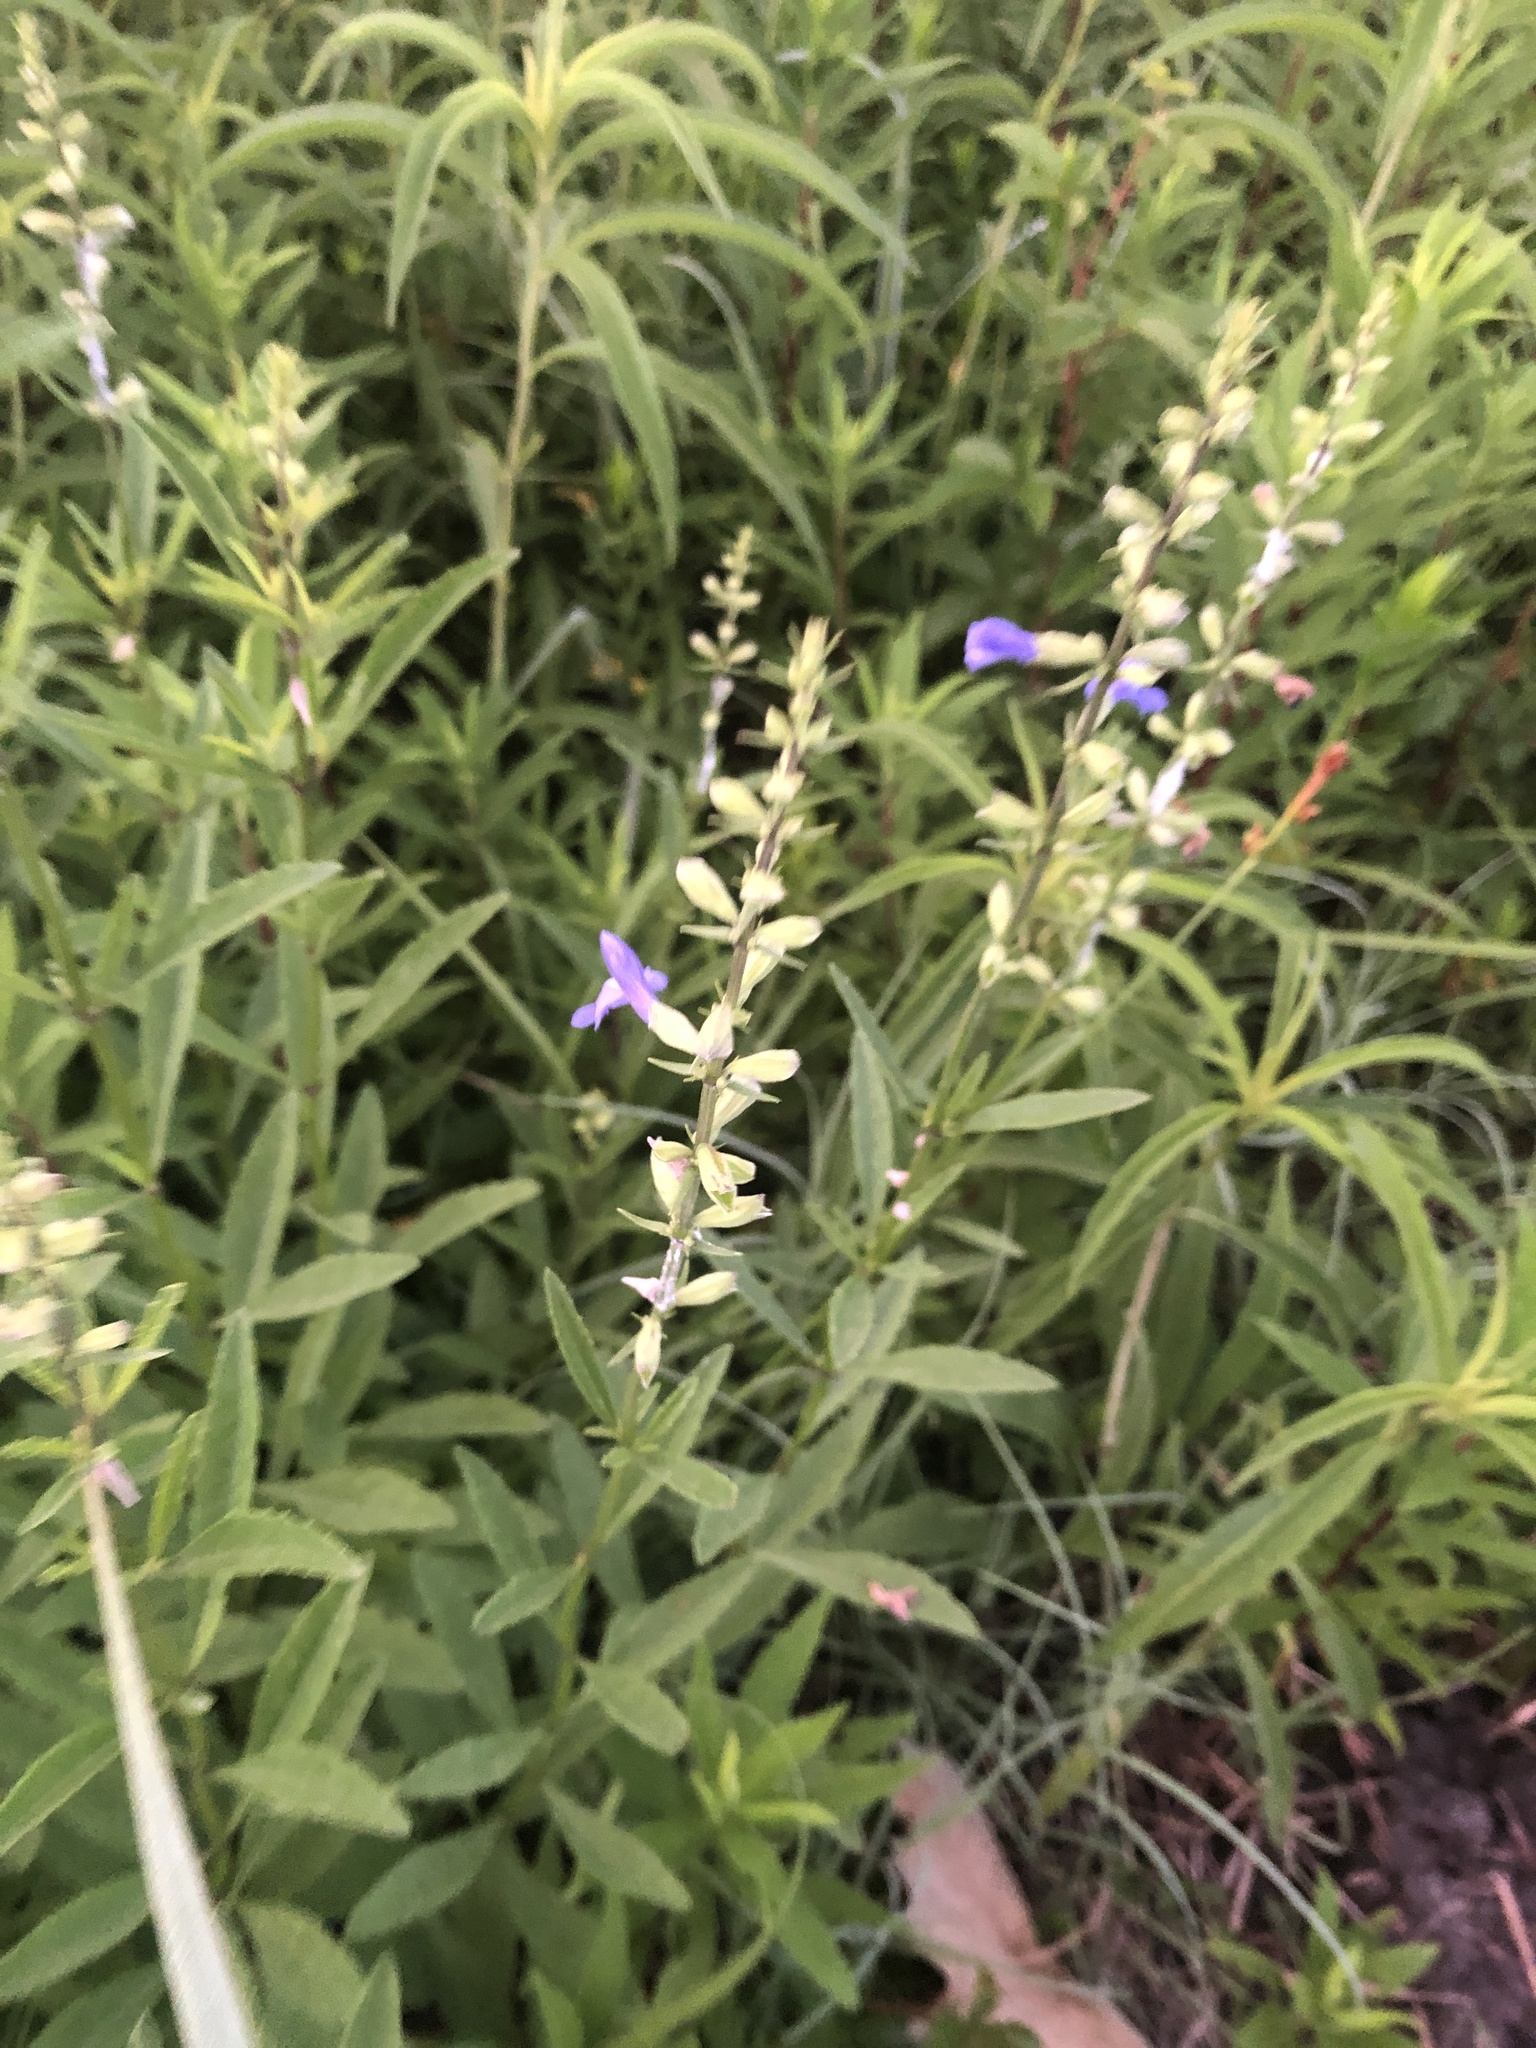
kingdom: Plantae
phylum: Tracheophyta
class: Magnoliopsida
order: Lamiales
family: Lamiaceae
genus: Salvia
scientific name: Salvia azurea
